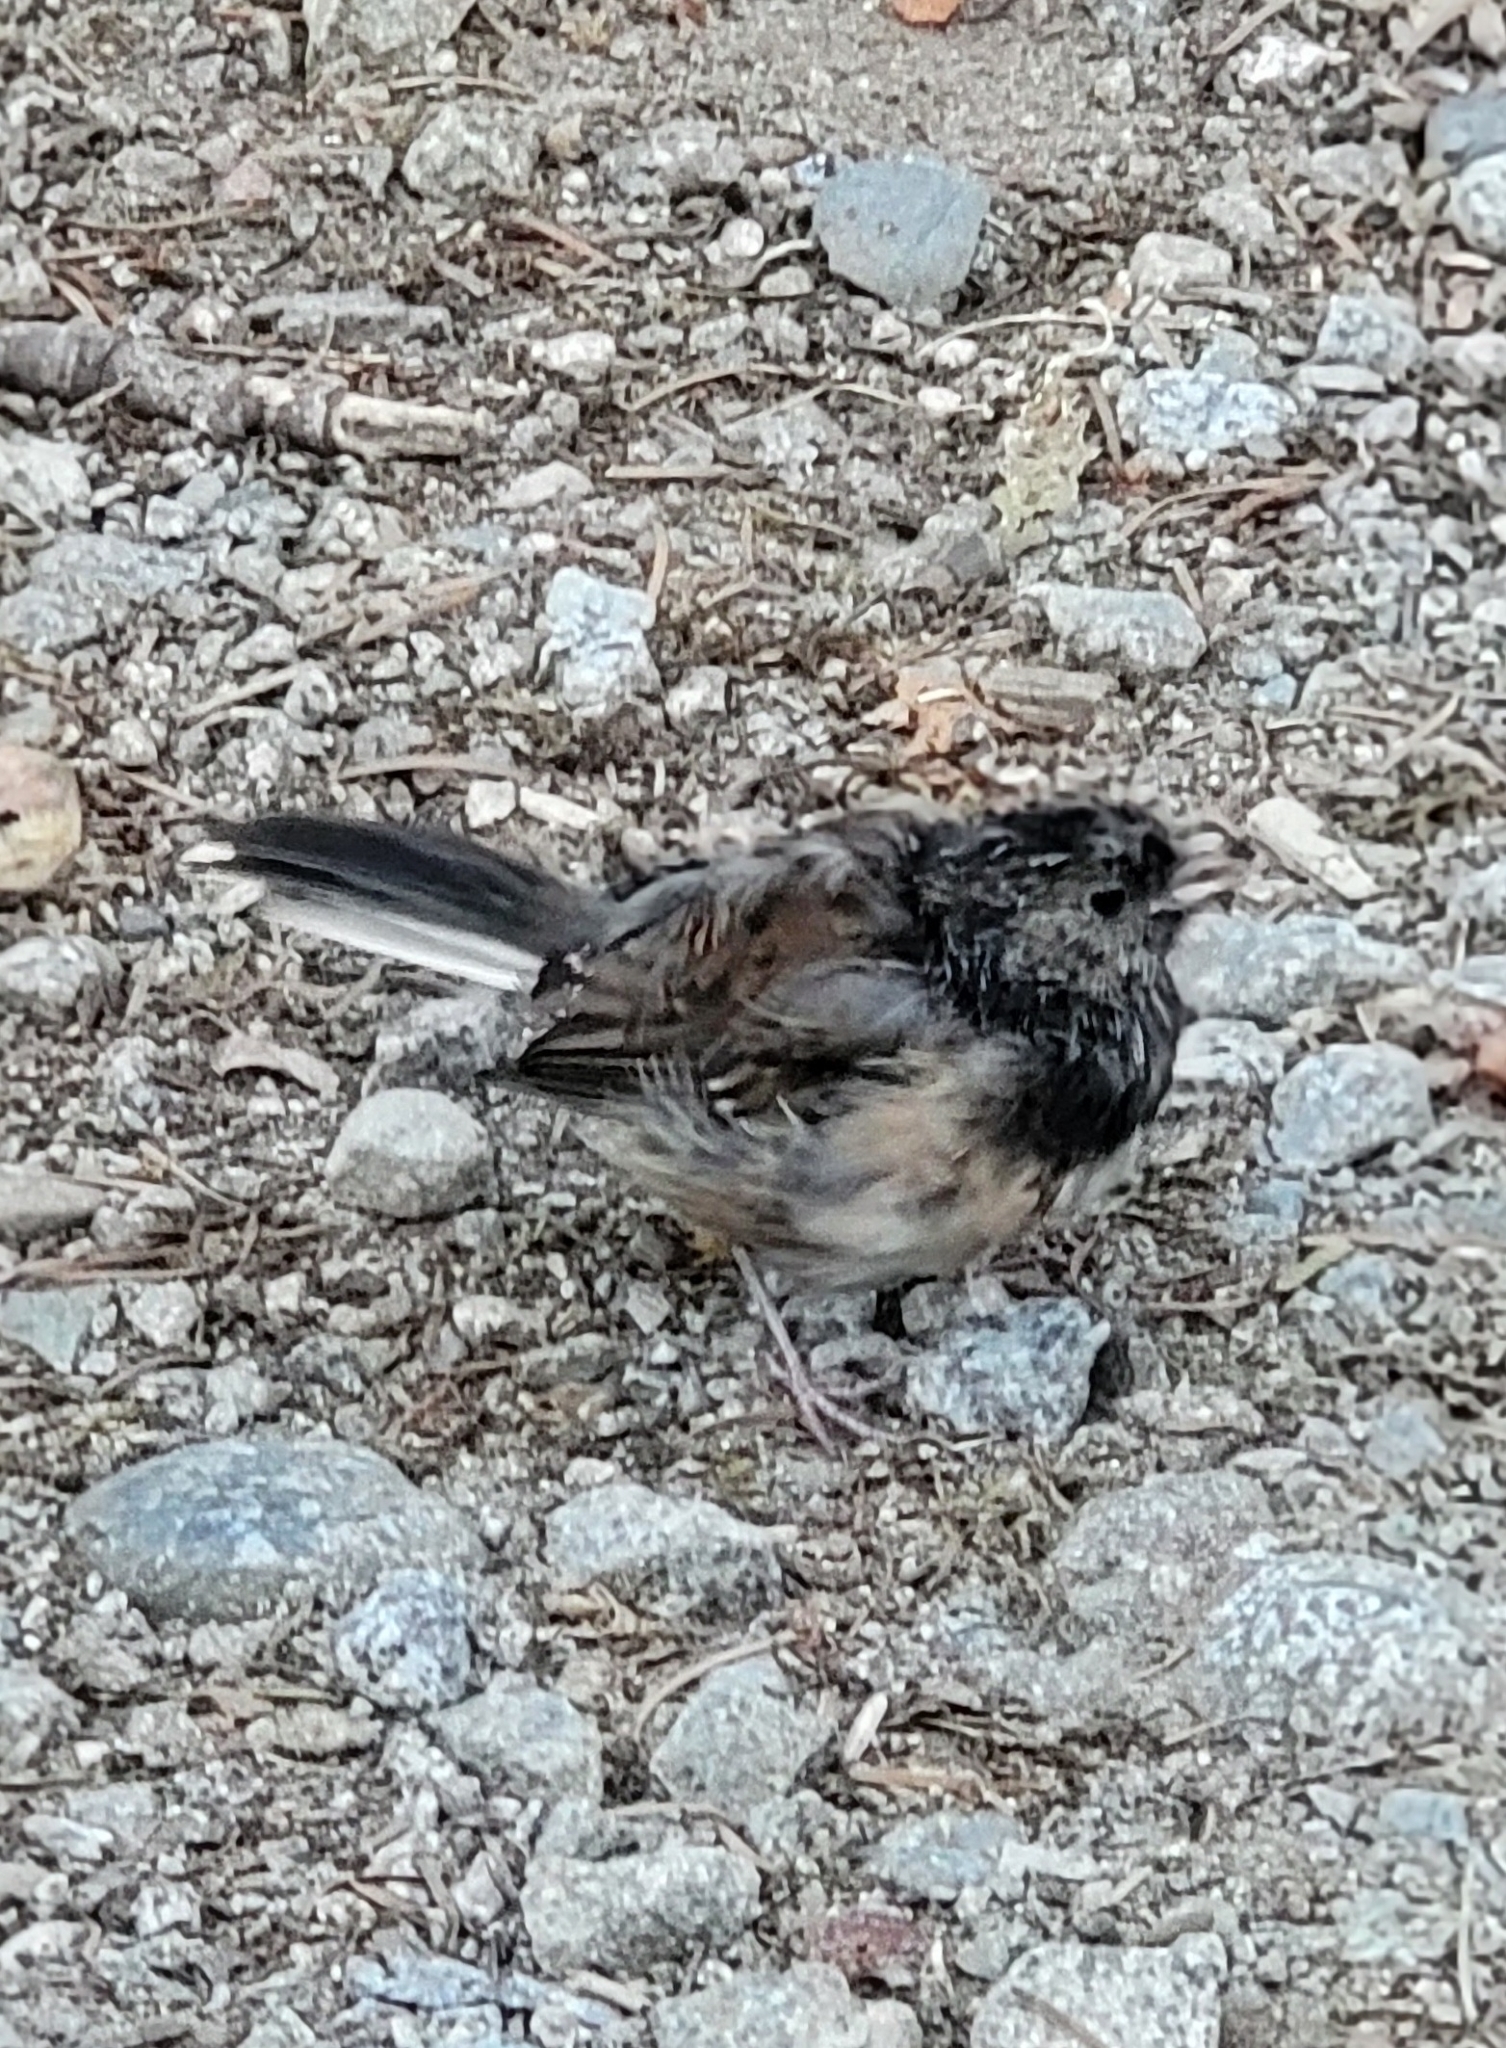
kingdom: Animalia
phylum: Chordata
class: Aves
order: Passeriformes
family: Passerellidae
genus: Junco
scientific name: Junco hyemalis
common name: Dark-eyed junco
